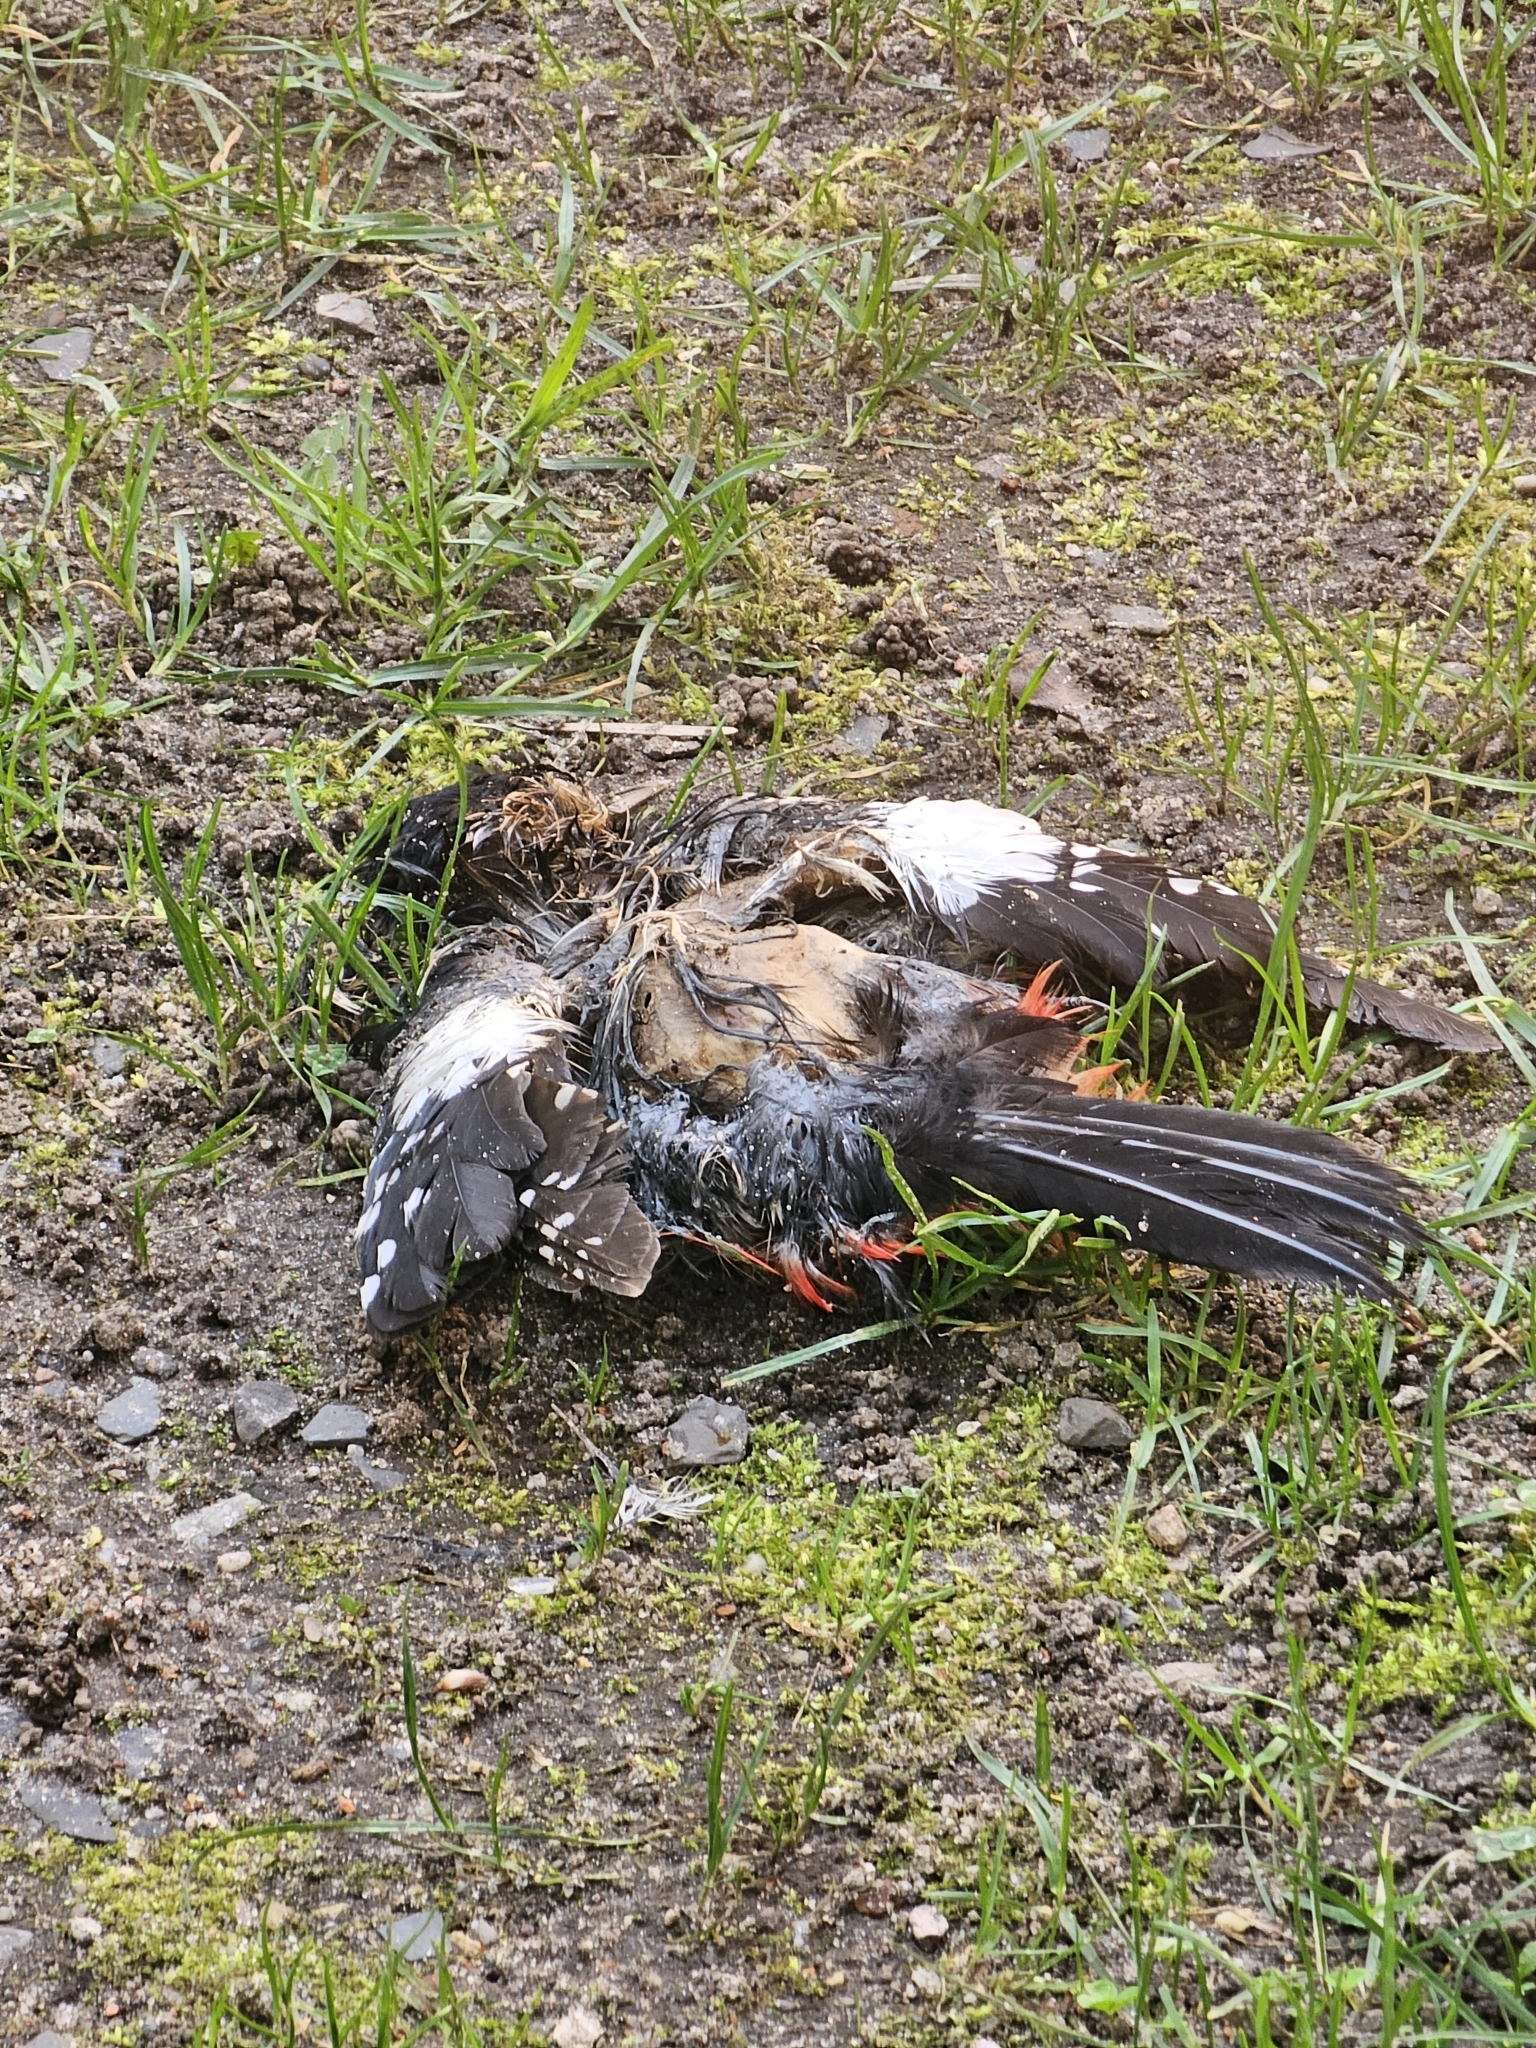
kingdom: Animalia
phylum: Chordata
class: Aves
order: Piciformes
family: Picidae
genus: Dendrocopos
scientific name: Dendrocopos major
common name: Great spotted woodpecker
